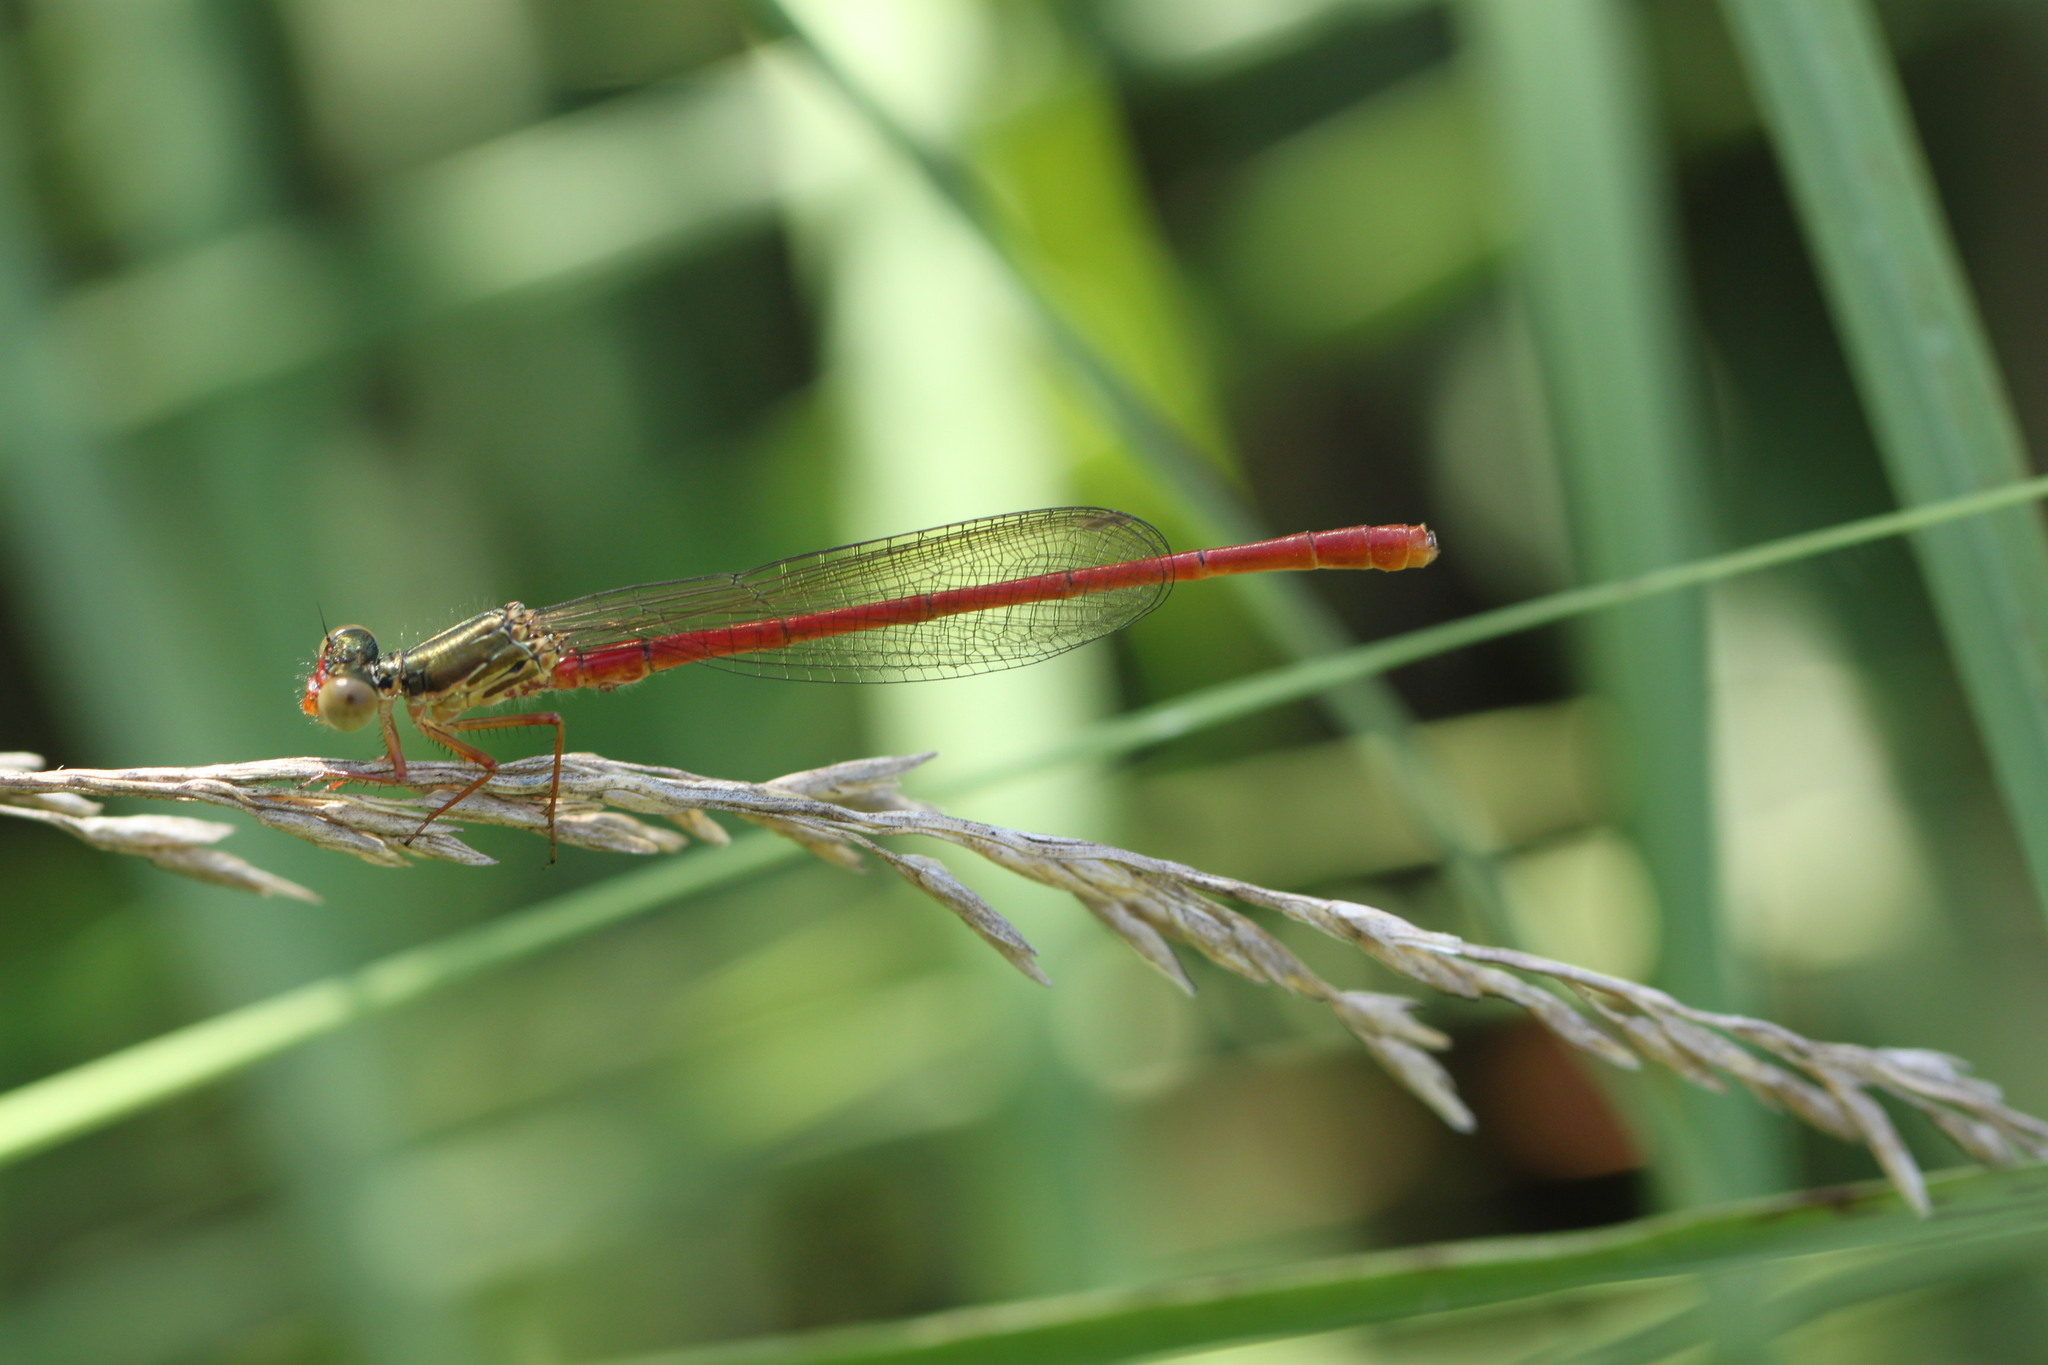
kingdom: Animalia
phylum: Arthropoda
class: Insecta
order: Odonata
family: Coenagrionidae
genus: Ceriagrion
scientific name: Ceriagrion tenellum
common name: Small red damselfly
